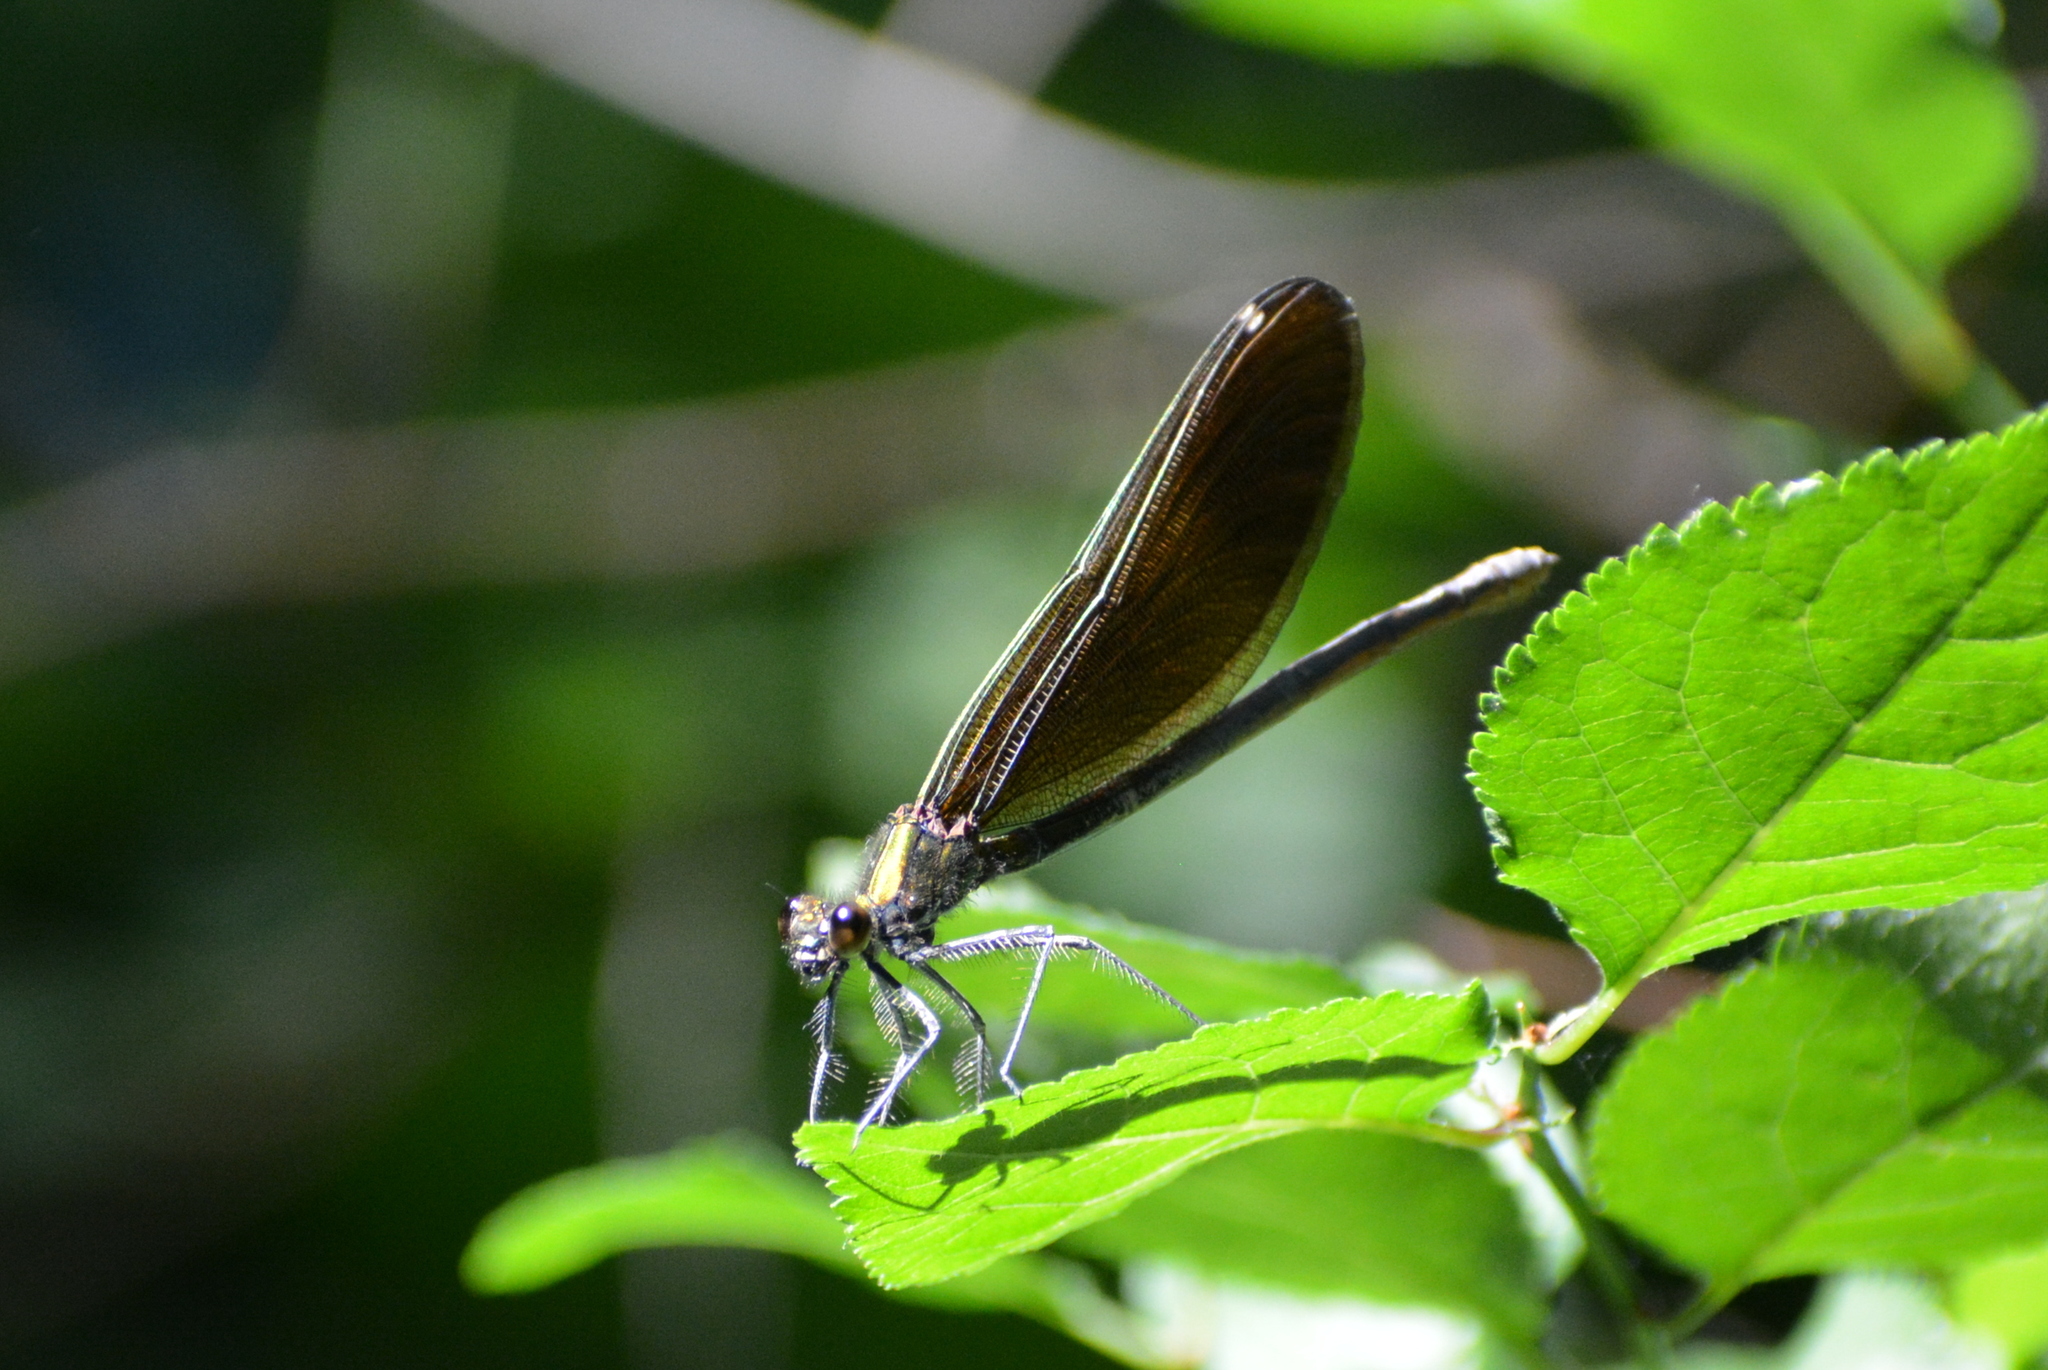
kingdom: Animalia
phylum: Arthropoda
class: Insecta
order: Odonata
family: Calopterygidae
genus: Calopteryx
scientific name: Calopteryx virgo
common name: Beautiful demoiselle
